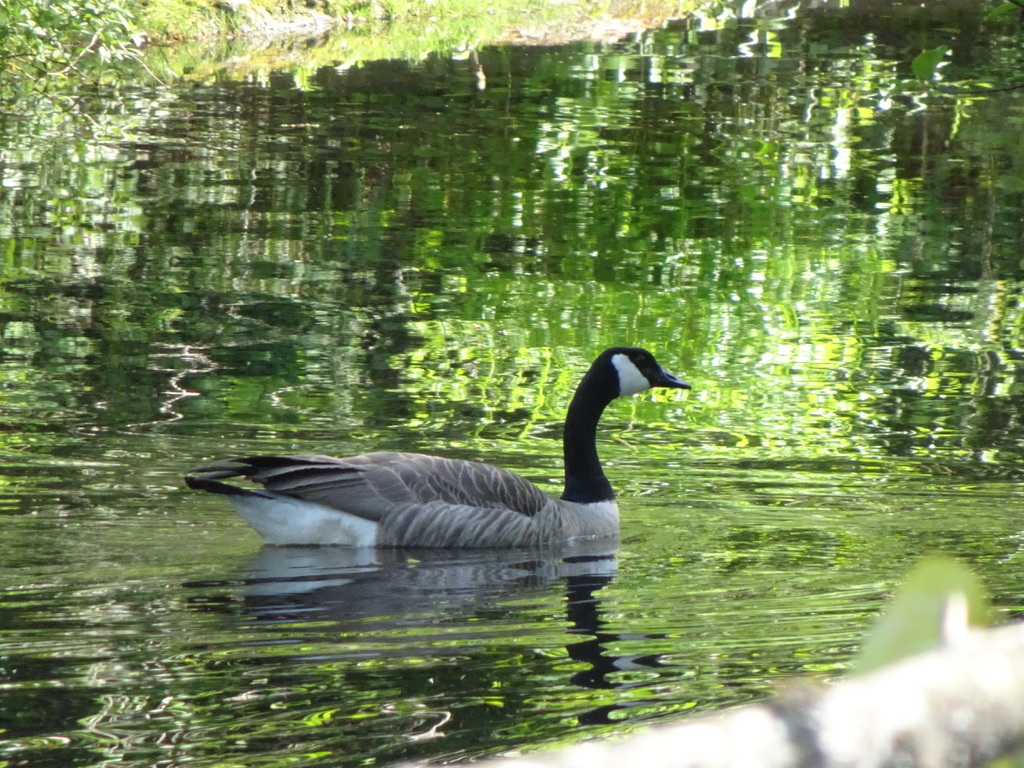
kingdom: Animalia
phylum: Chordata
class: Aves
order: Anseriformes
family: Anatidae
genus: Branta
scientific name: Branta canadensis
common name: Canada goose
